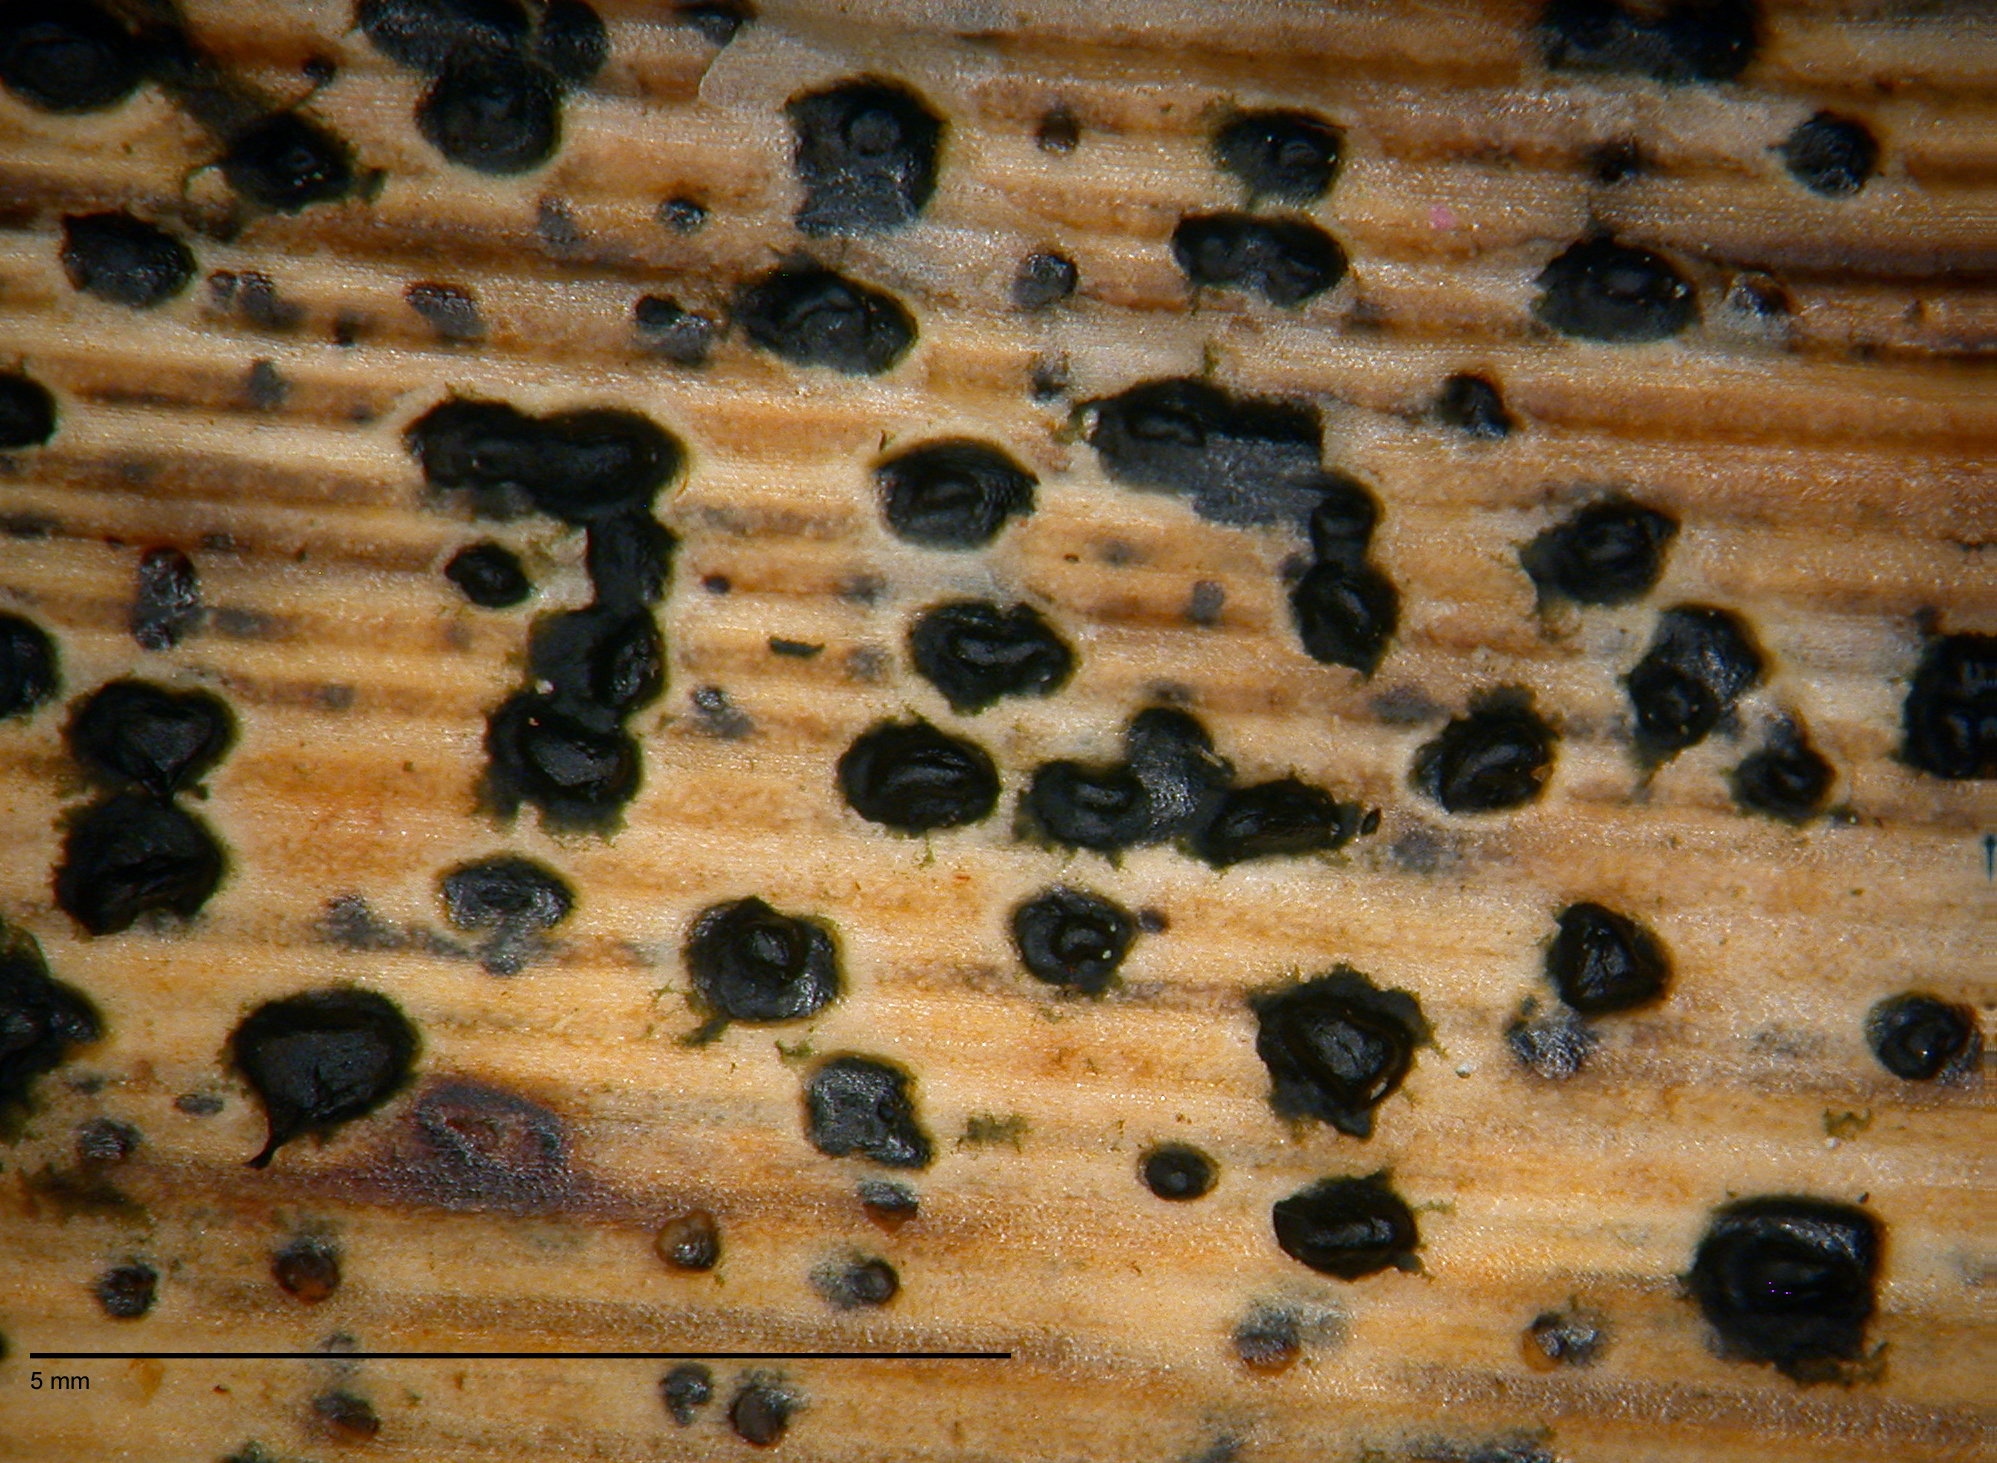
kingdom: Fungi
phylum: Ascomycota
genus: Pirostoma
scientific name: Pirostoma viridisporum
